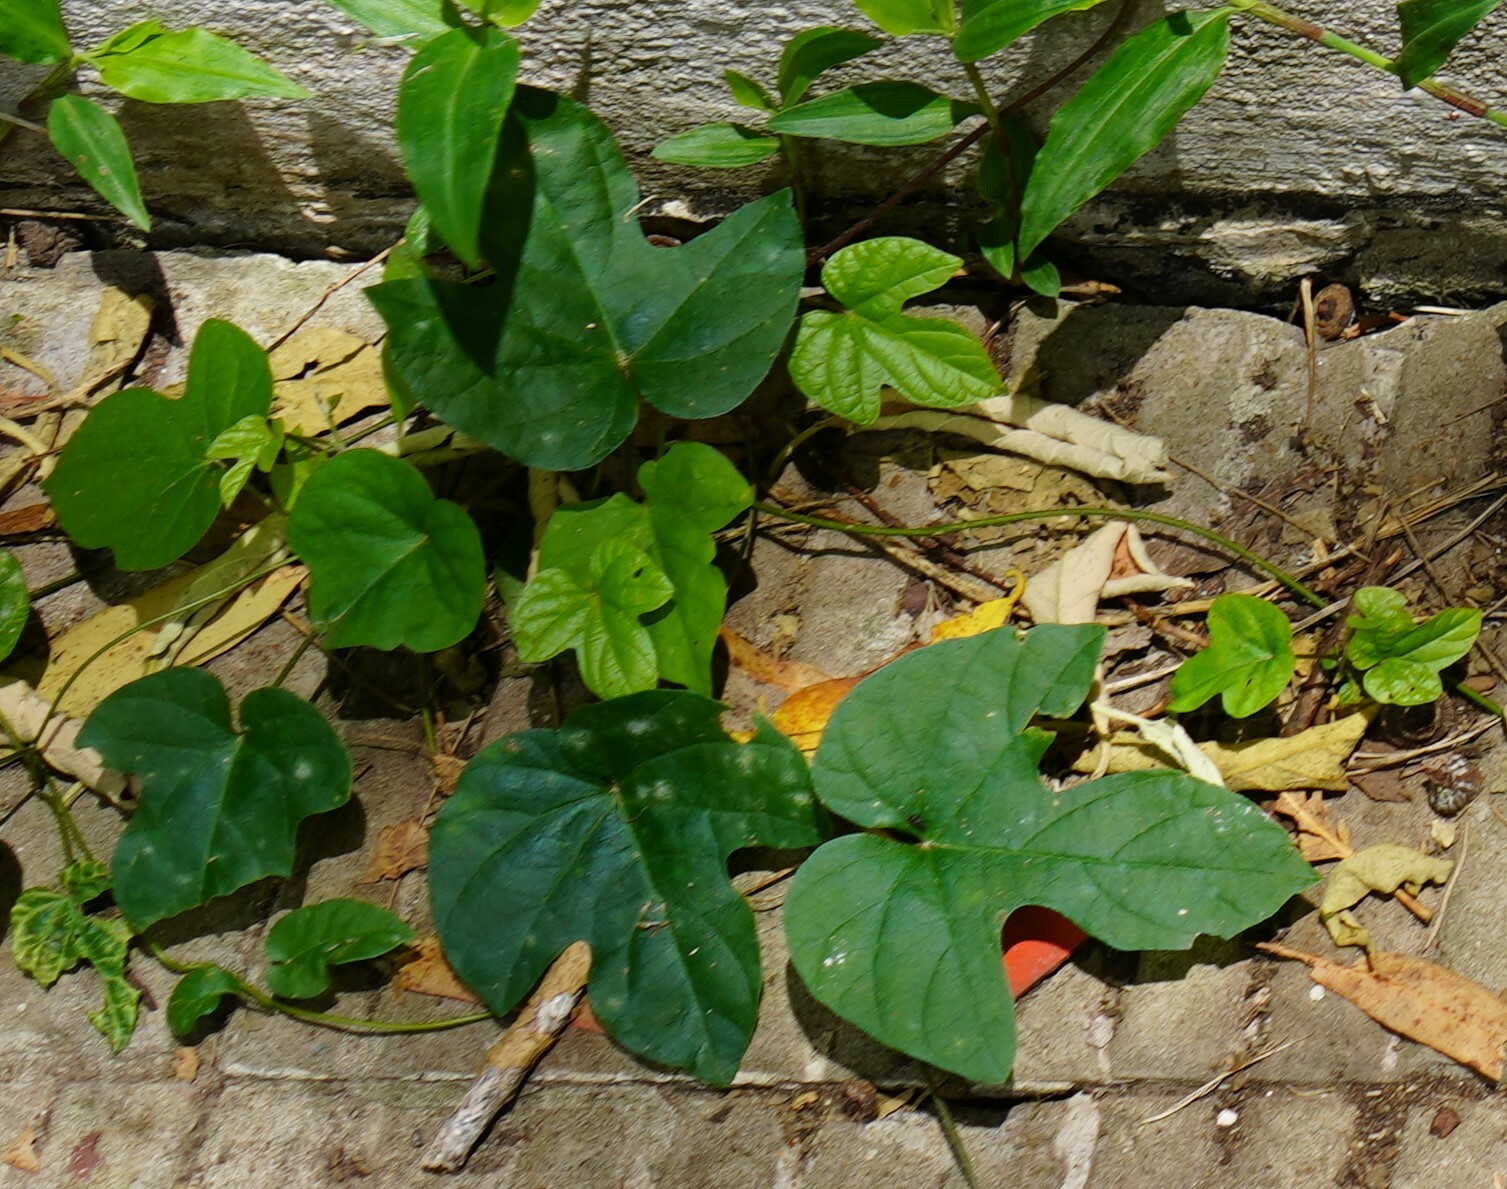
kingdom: Plantae
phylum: Tracheophyta
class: Magnoliopsida
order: Solanales
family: Convolvulaceae
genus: Ipomoea
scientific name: Ipomoea indica
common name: Blue dawnflower
